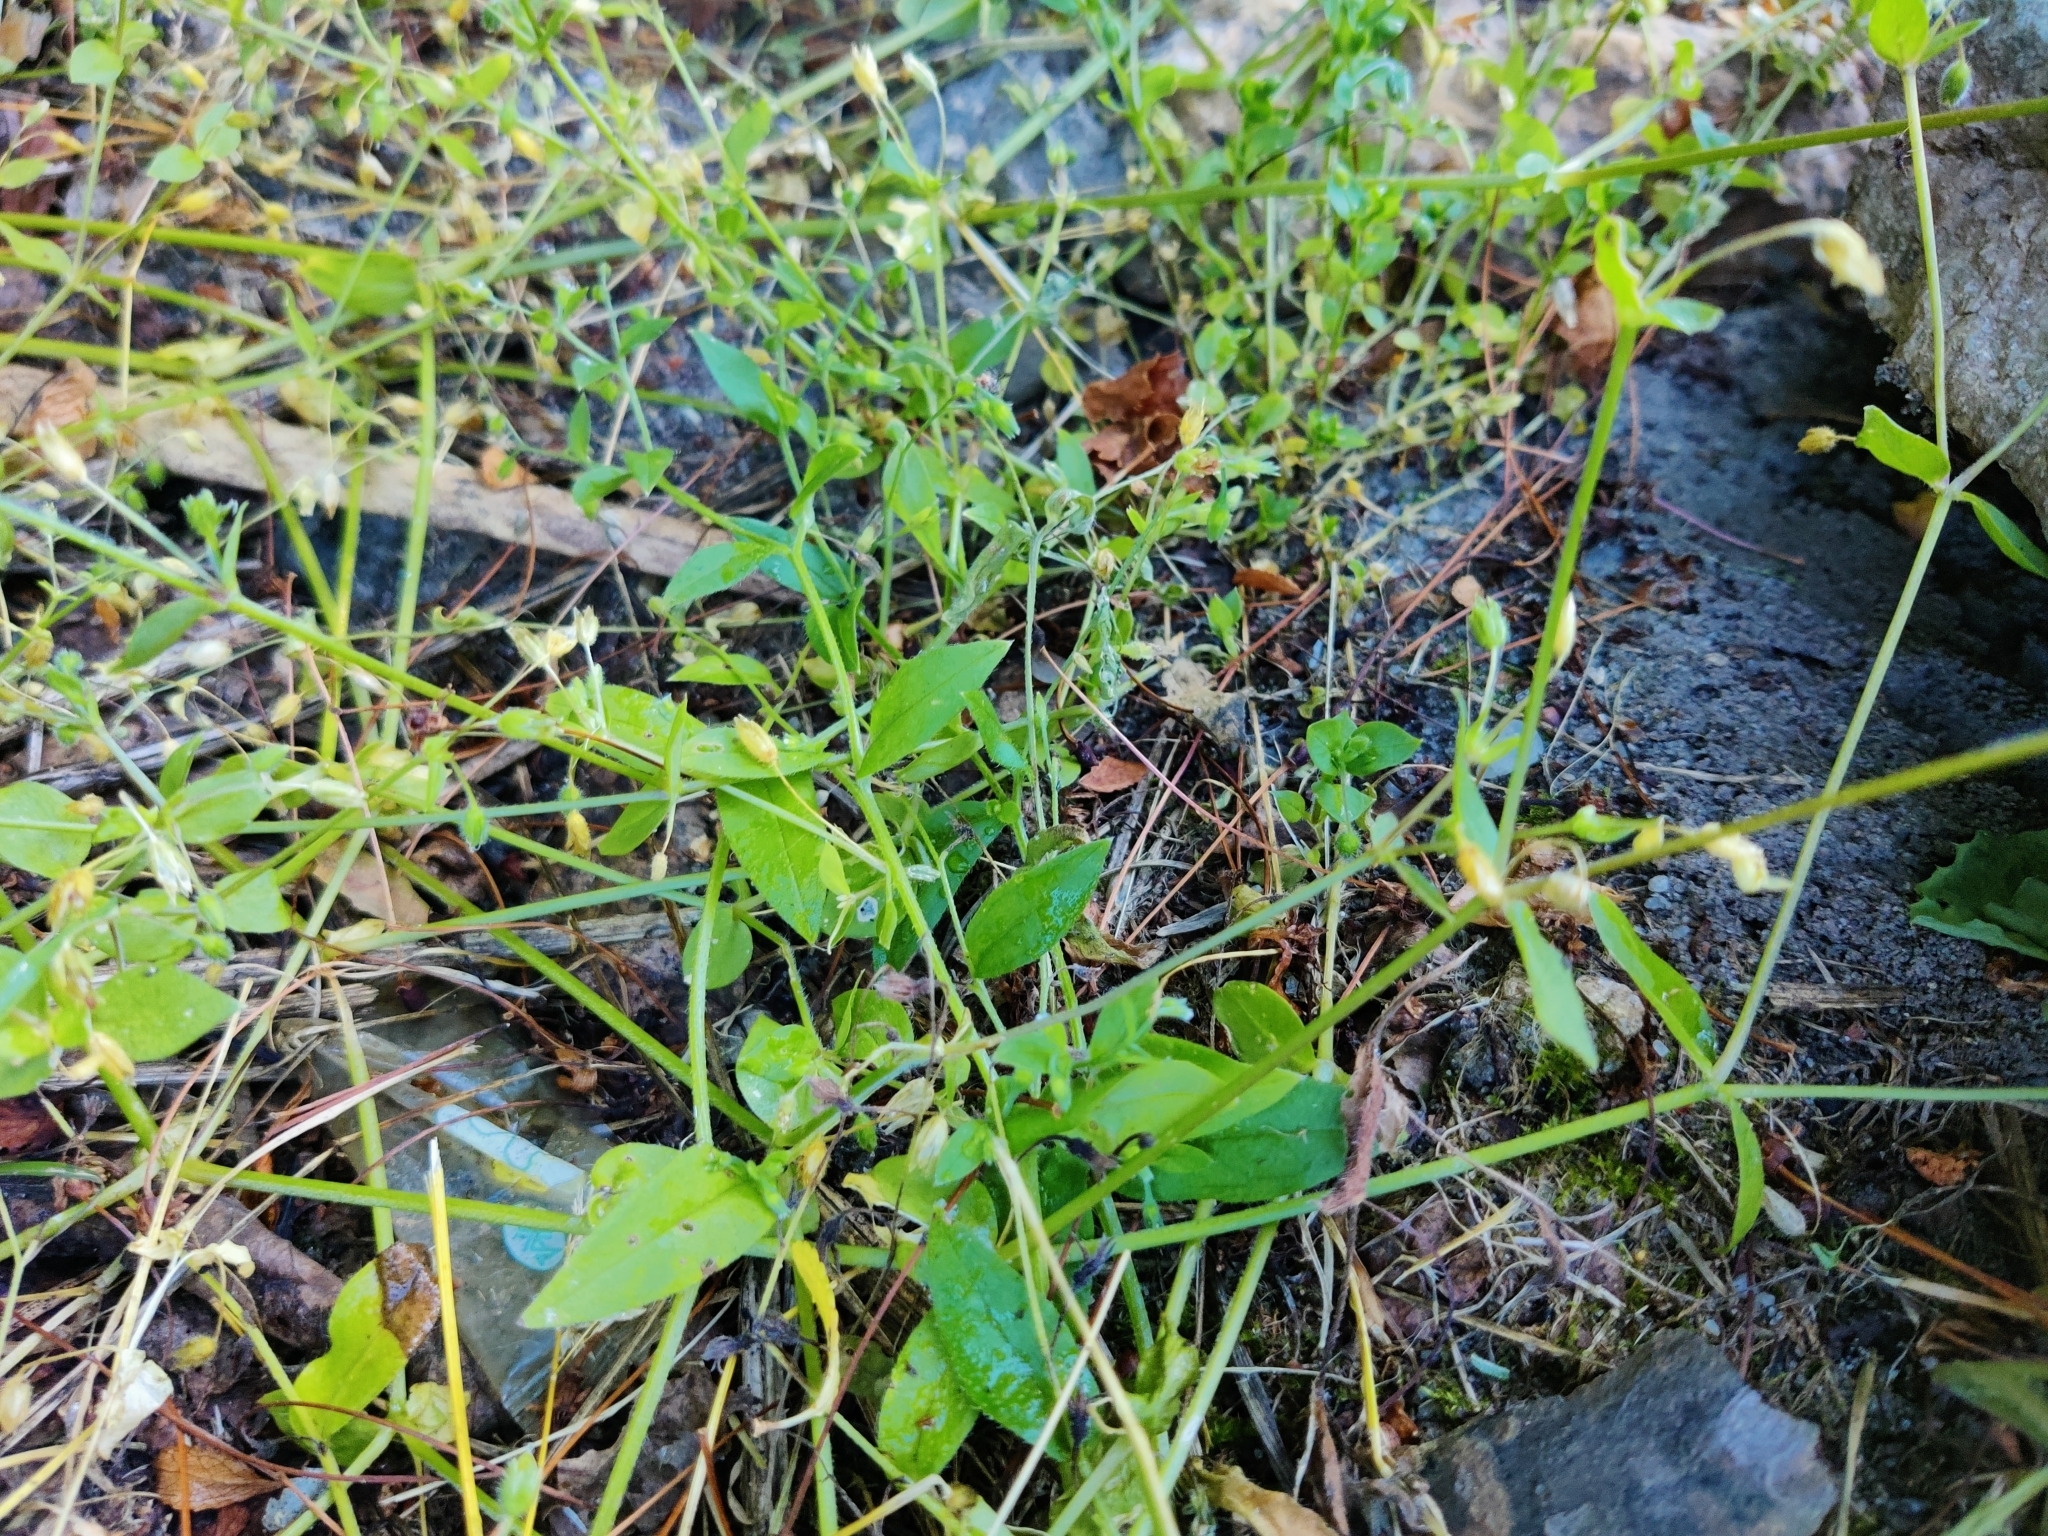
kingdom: Plantae
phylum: Tracheophyta
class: Magnoliopsida
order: Caryophyllales
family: Caryophyllaceae
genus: Stellaria
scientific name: Stellaria media
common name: Common chickweed
